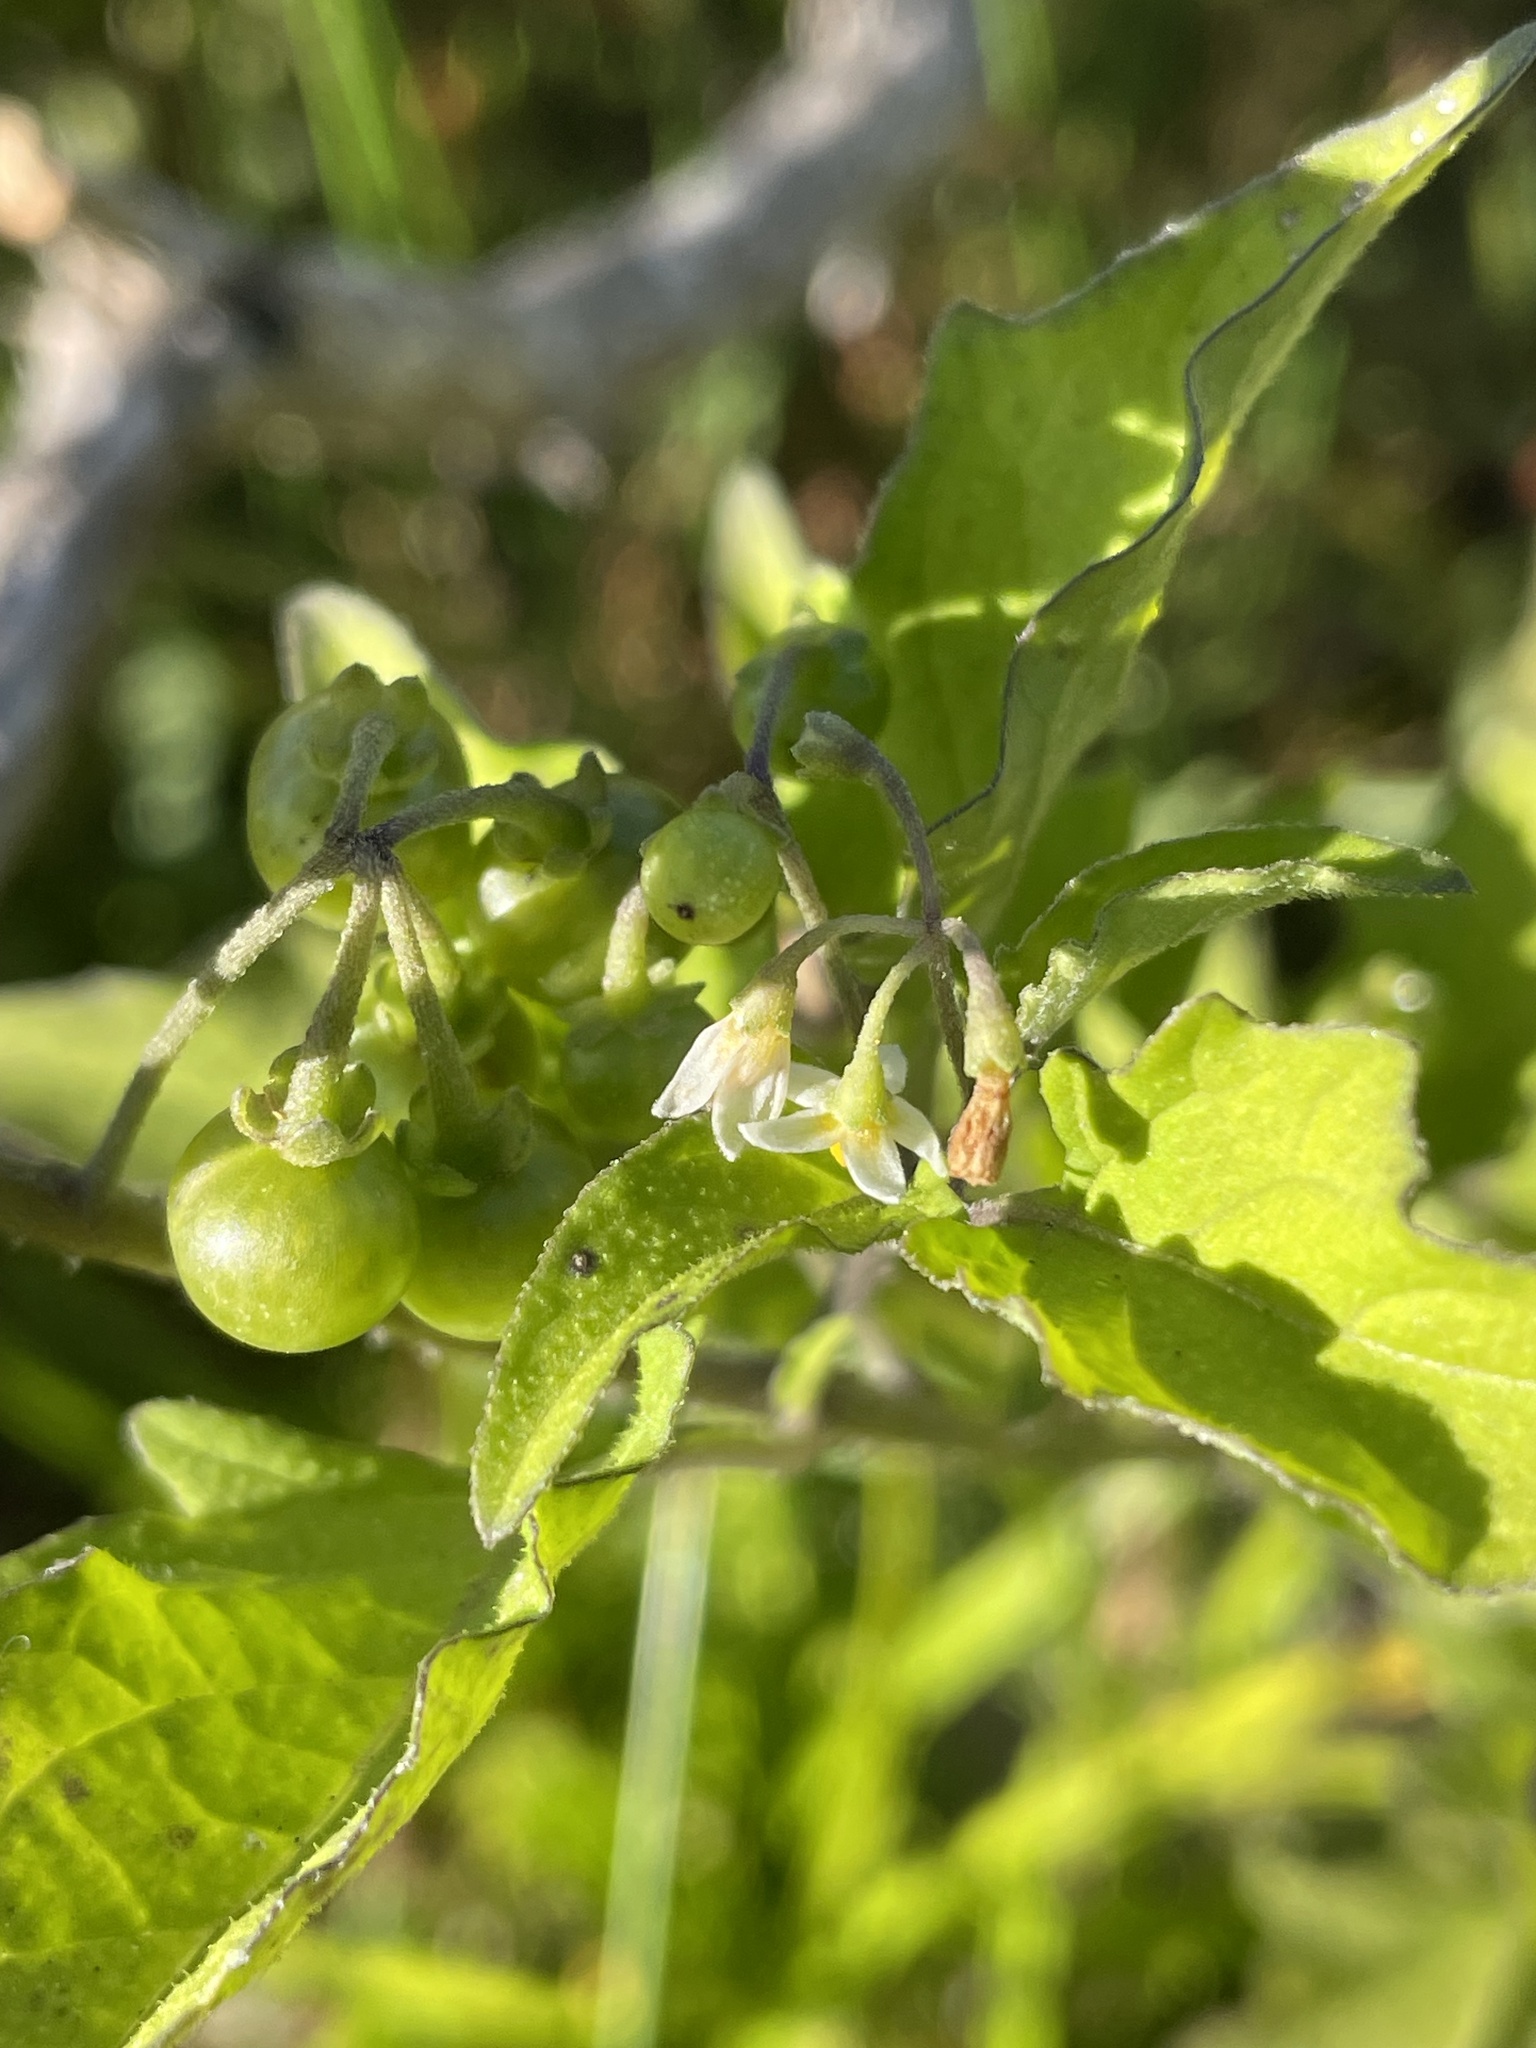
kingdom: Plantae
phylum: Tracheophyta
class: Magnoliopsida
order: Solanales
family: Solanaceae
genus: Solanum
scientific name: Solanum americanum
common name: American black nightshade
